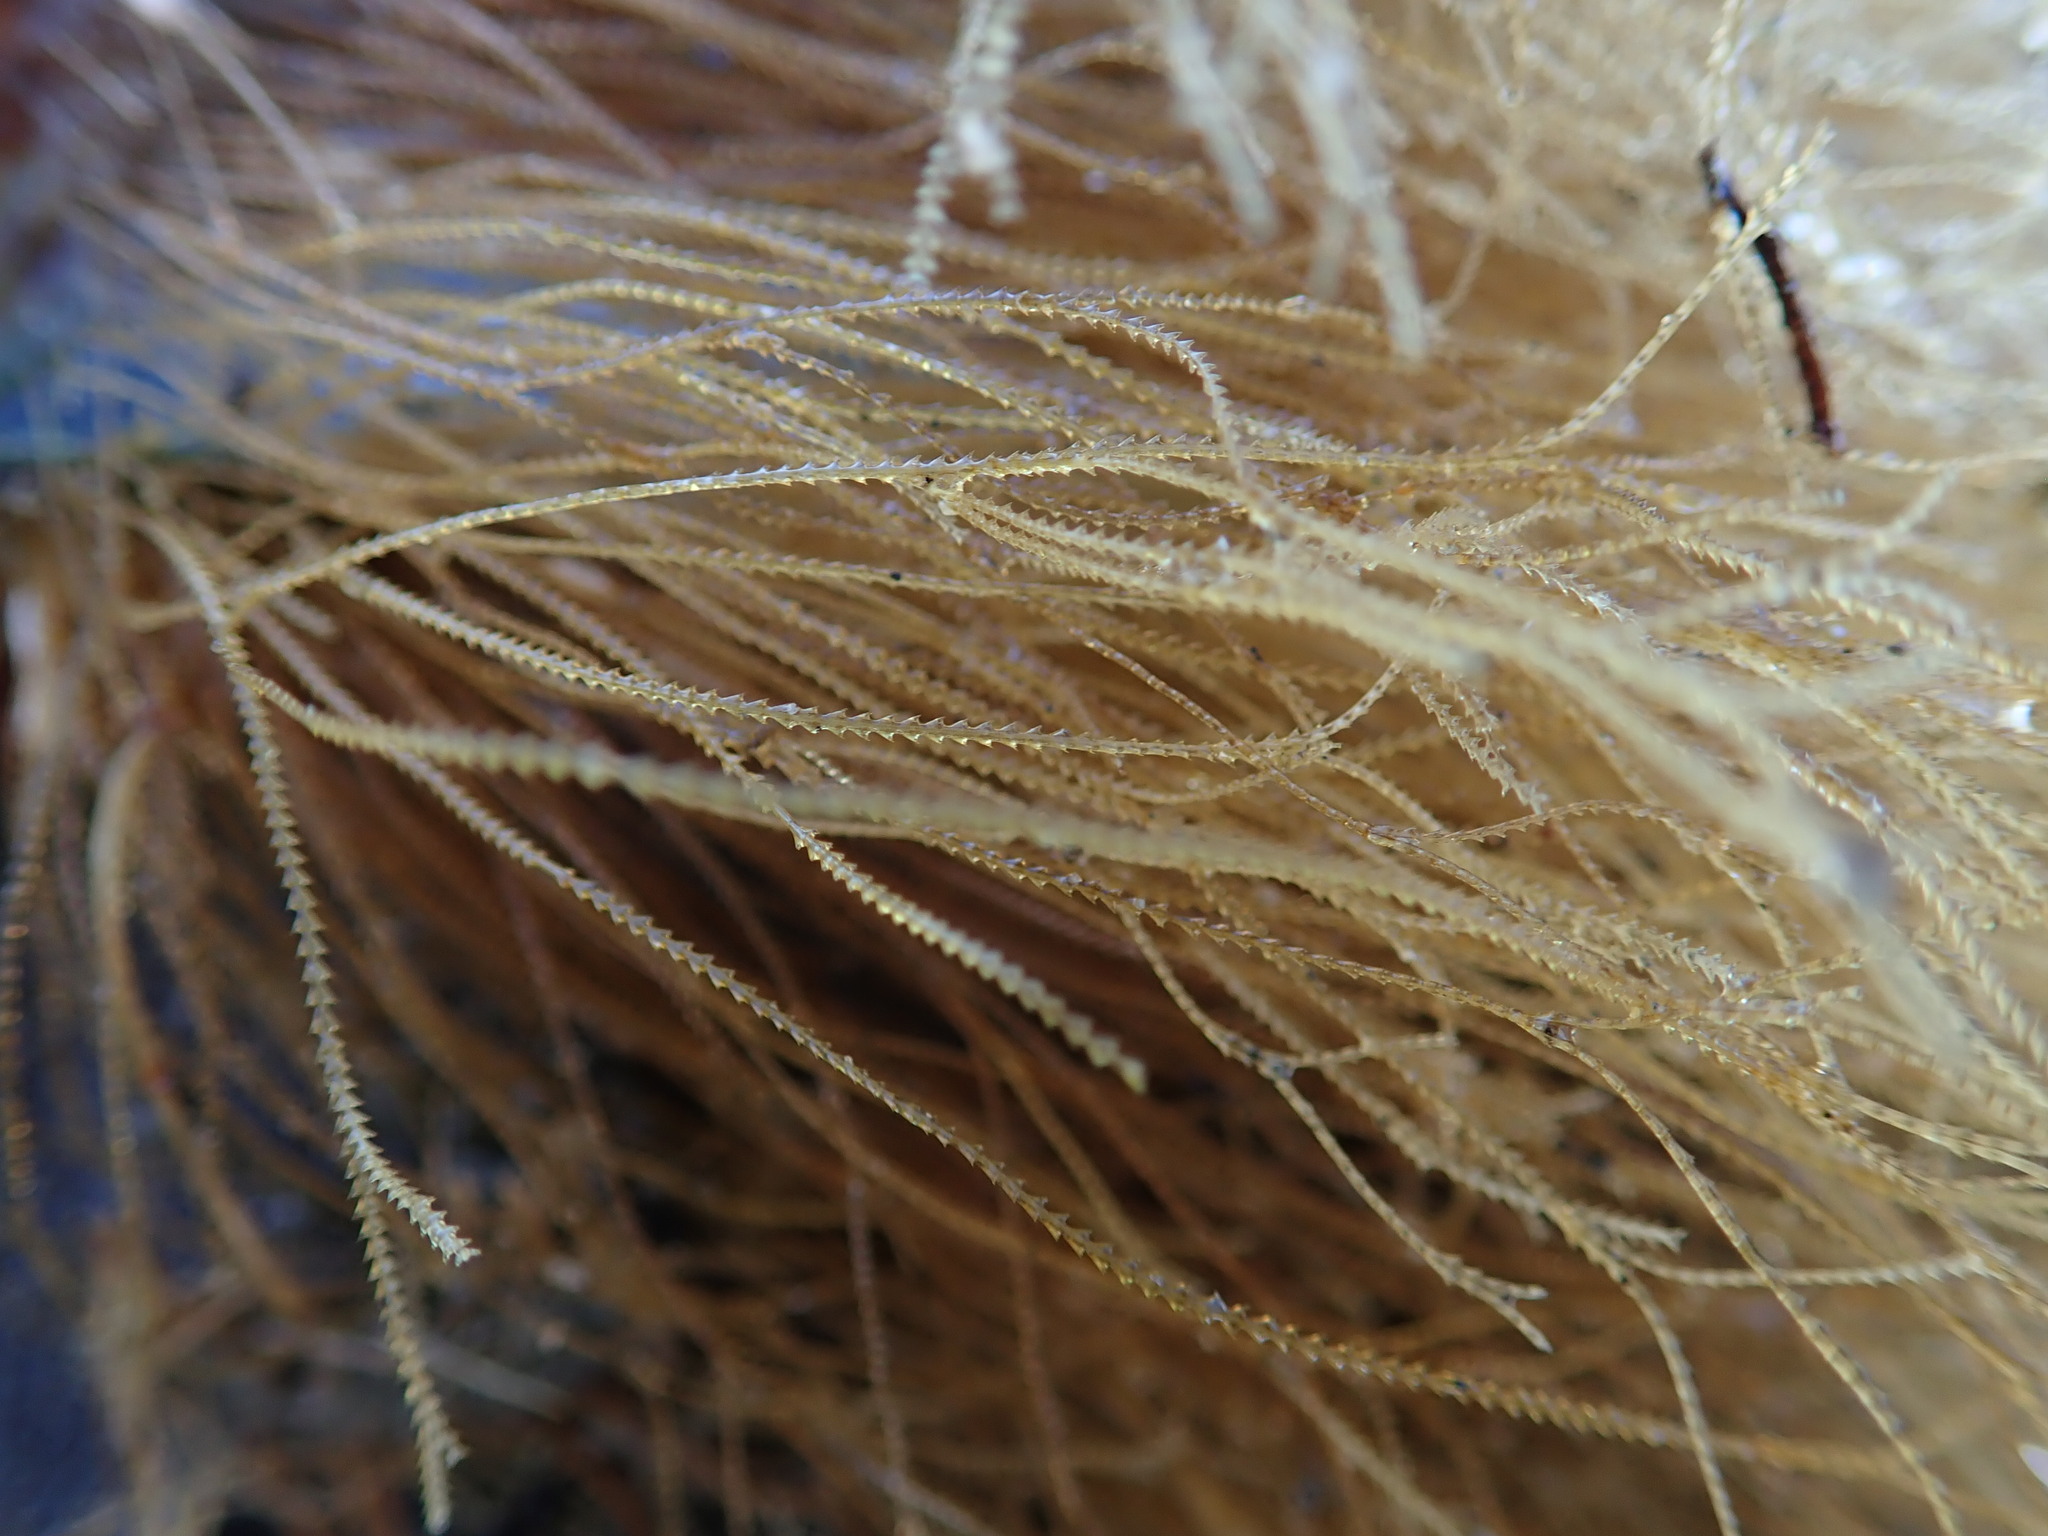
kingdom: Animalia
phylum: Cnidaria
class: Hydrozoa
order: Leptothecata
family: Sertulariidae
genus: Amphisbetia
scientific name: Amphisbetia bispinosa
